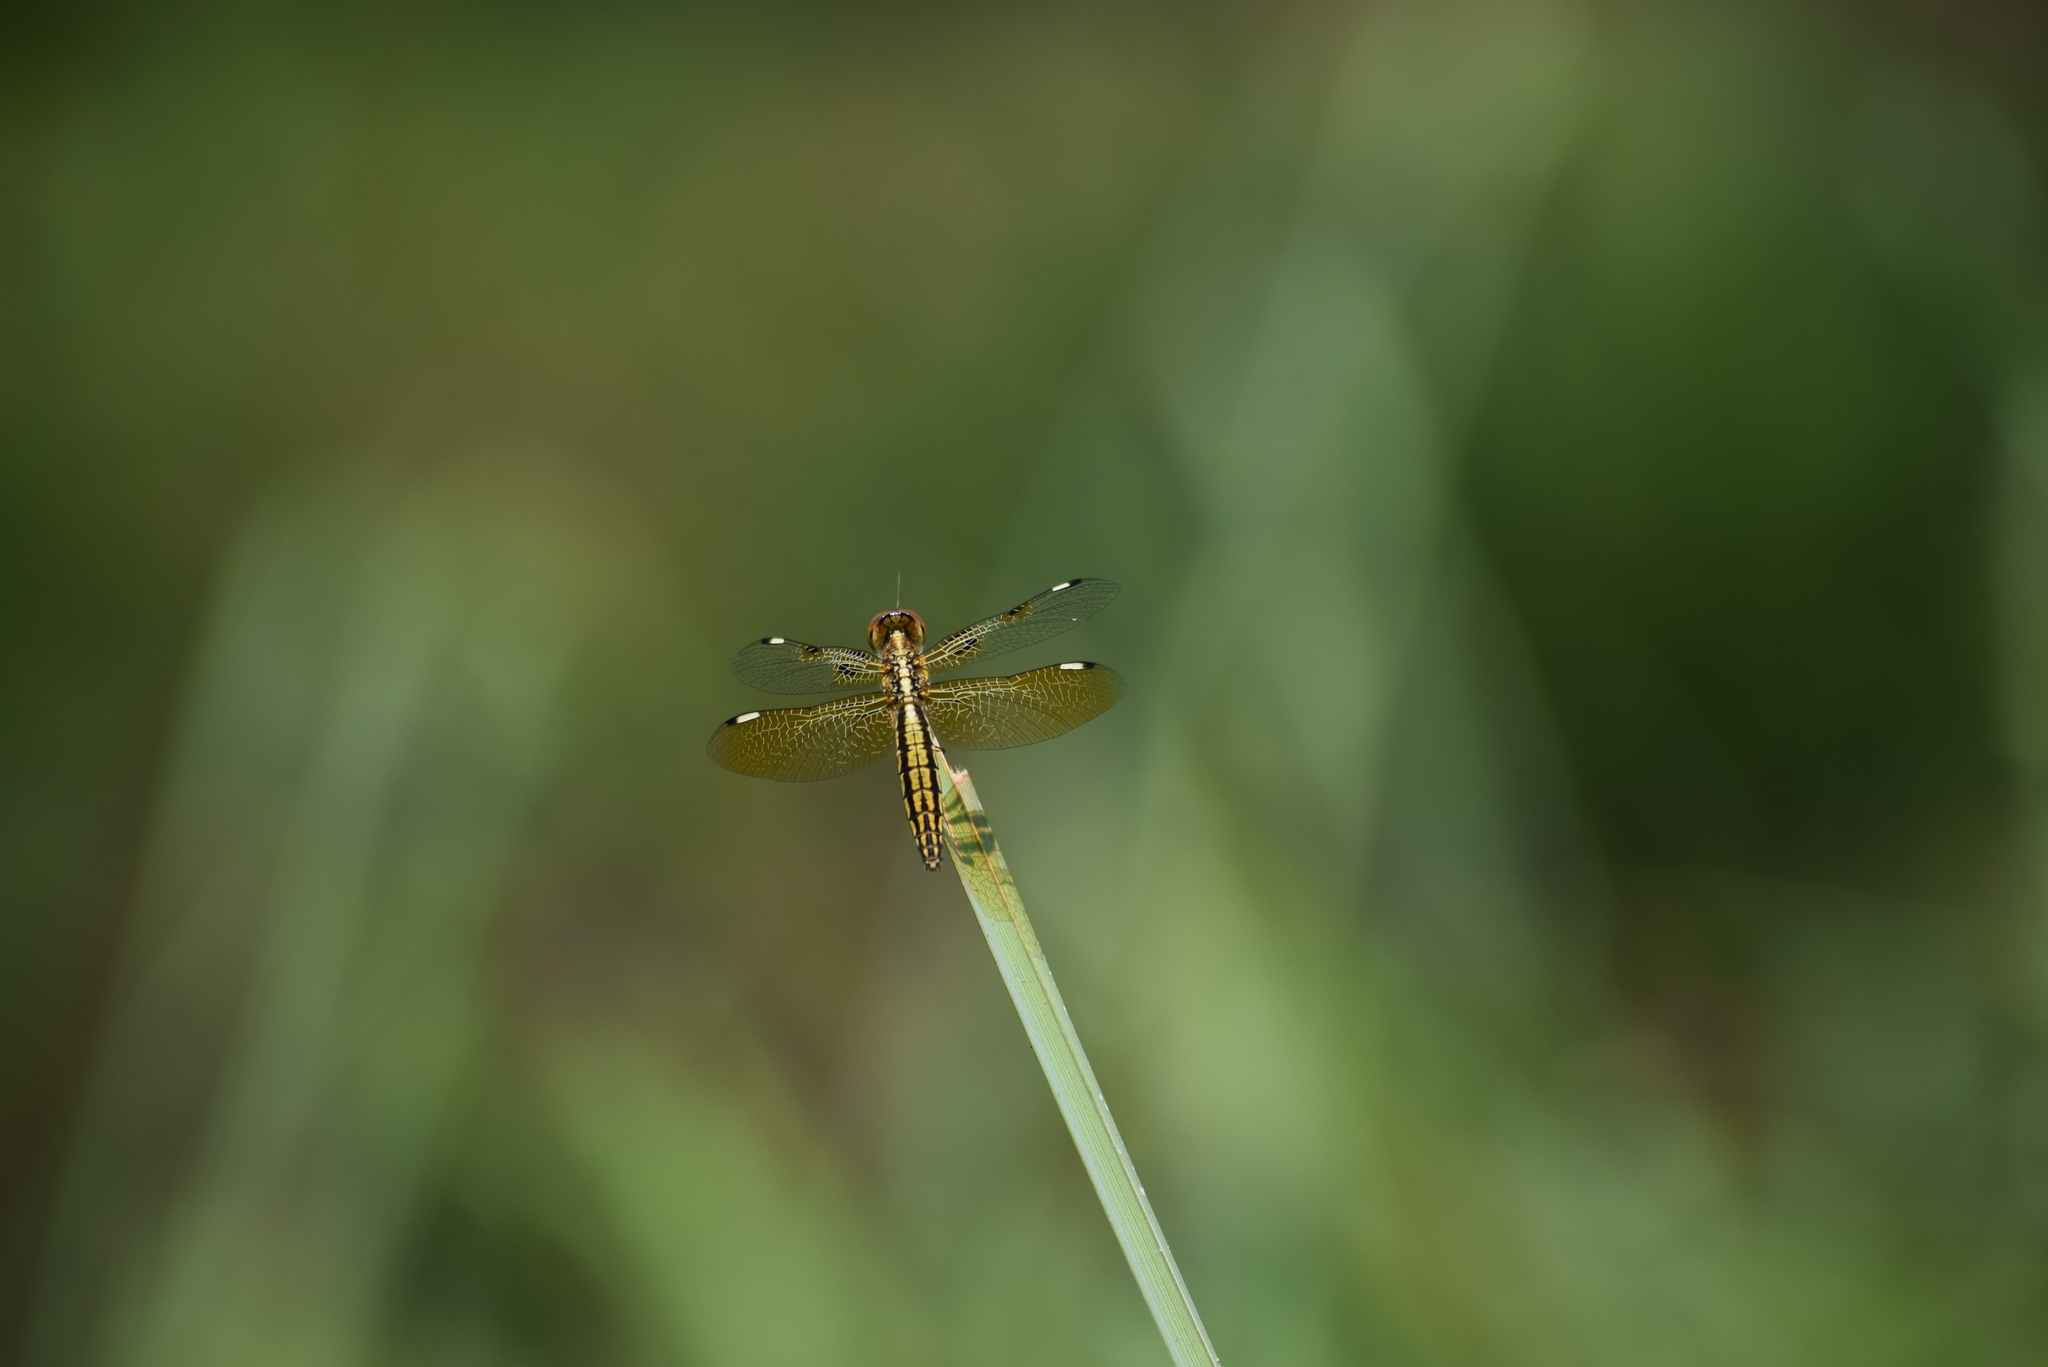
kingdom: Animalia
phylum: Arthropoda
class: Insecta
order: Odonata
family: Libellulidae
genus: Palpopleura
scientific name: Palpopleura sexmaculata
